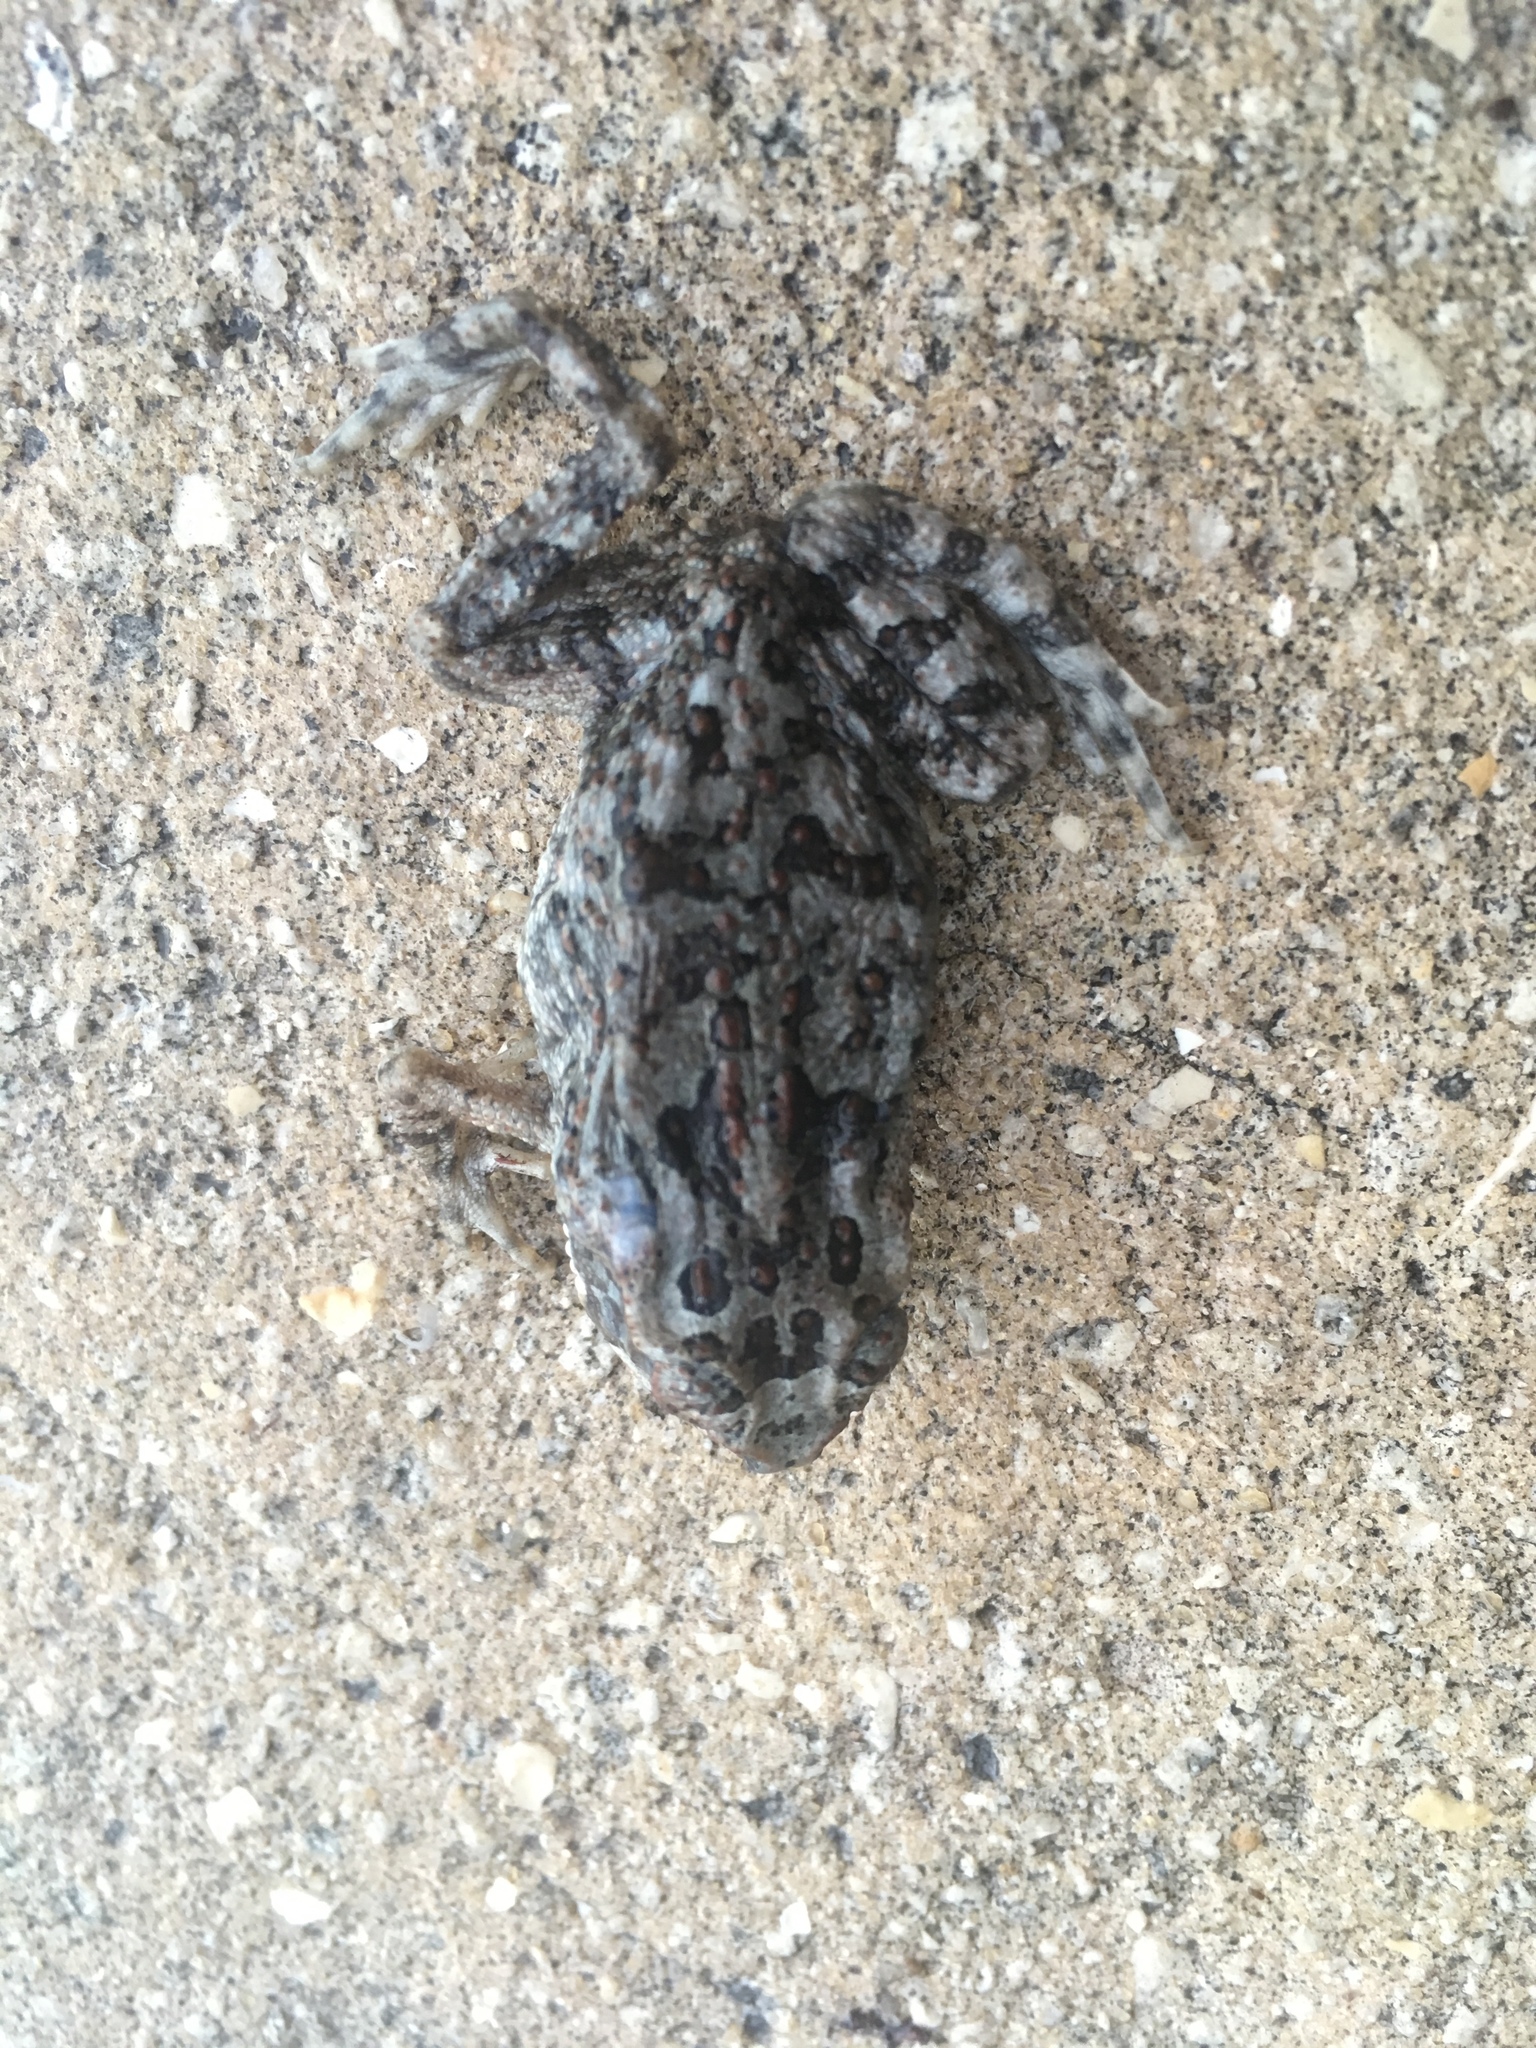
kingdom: Animalia
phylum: Chordata
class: Amphibia
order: Anura
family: Bufonidae
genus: Rhinella
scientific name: Rhinella marina
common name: Cane toad
